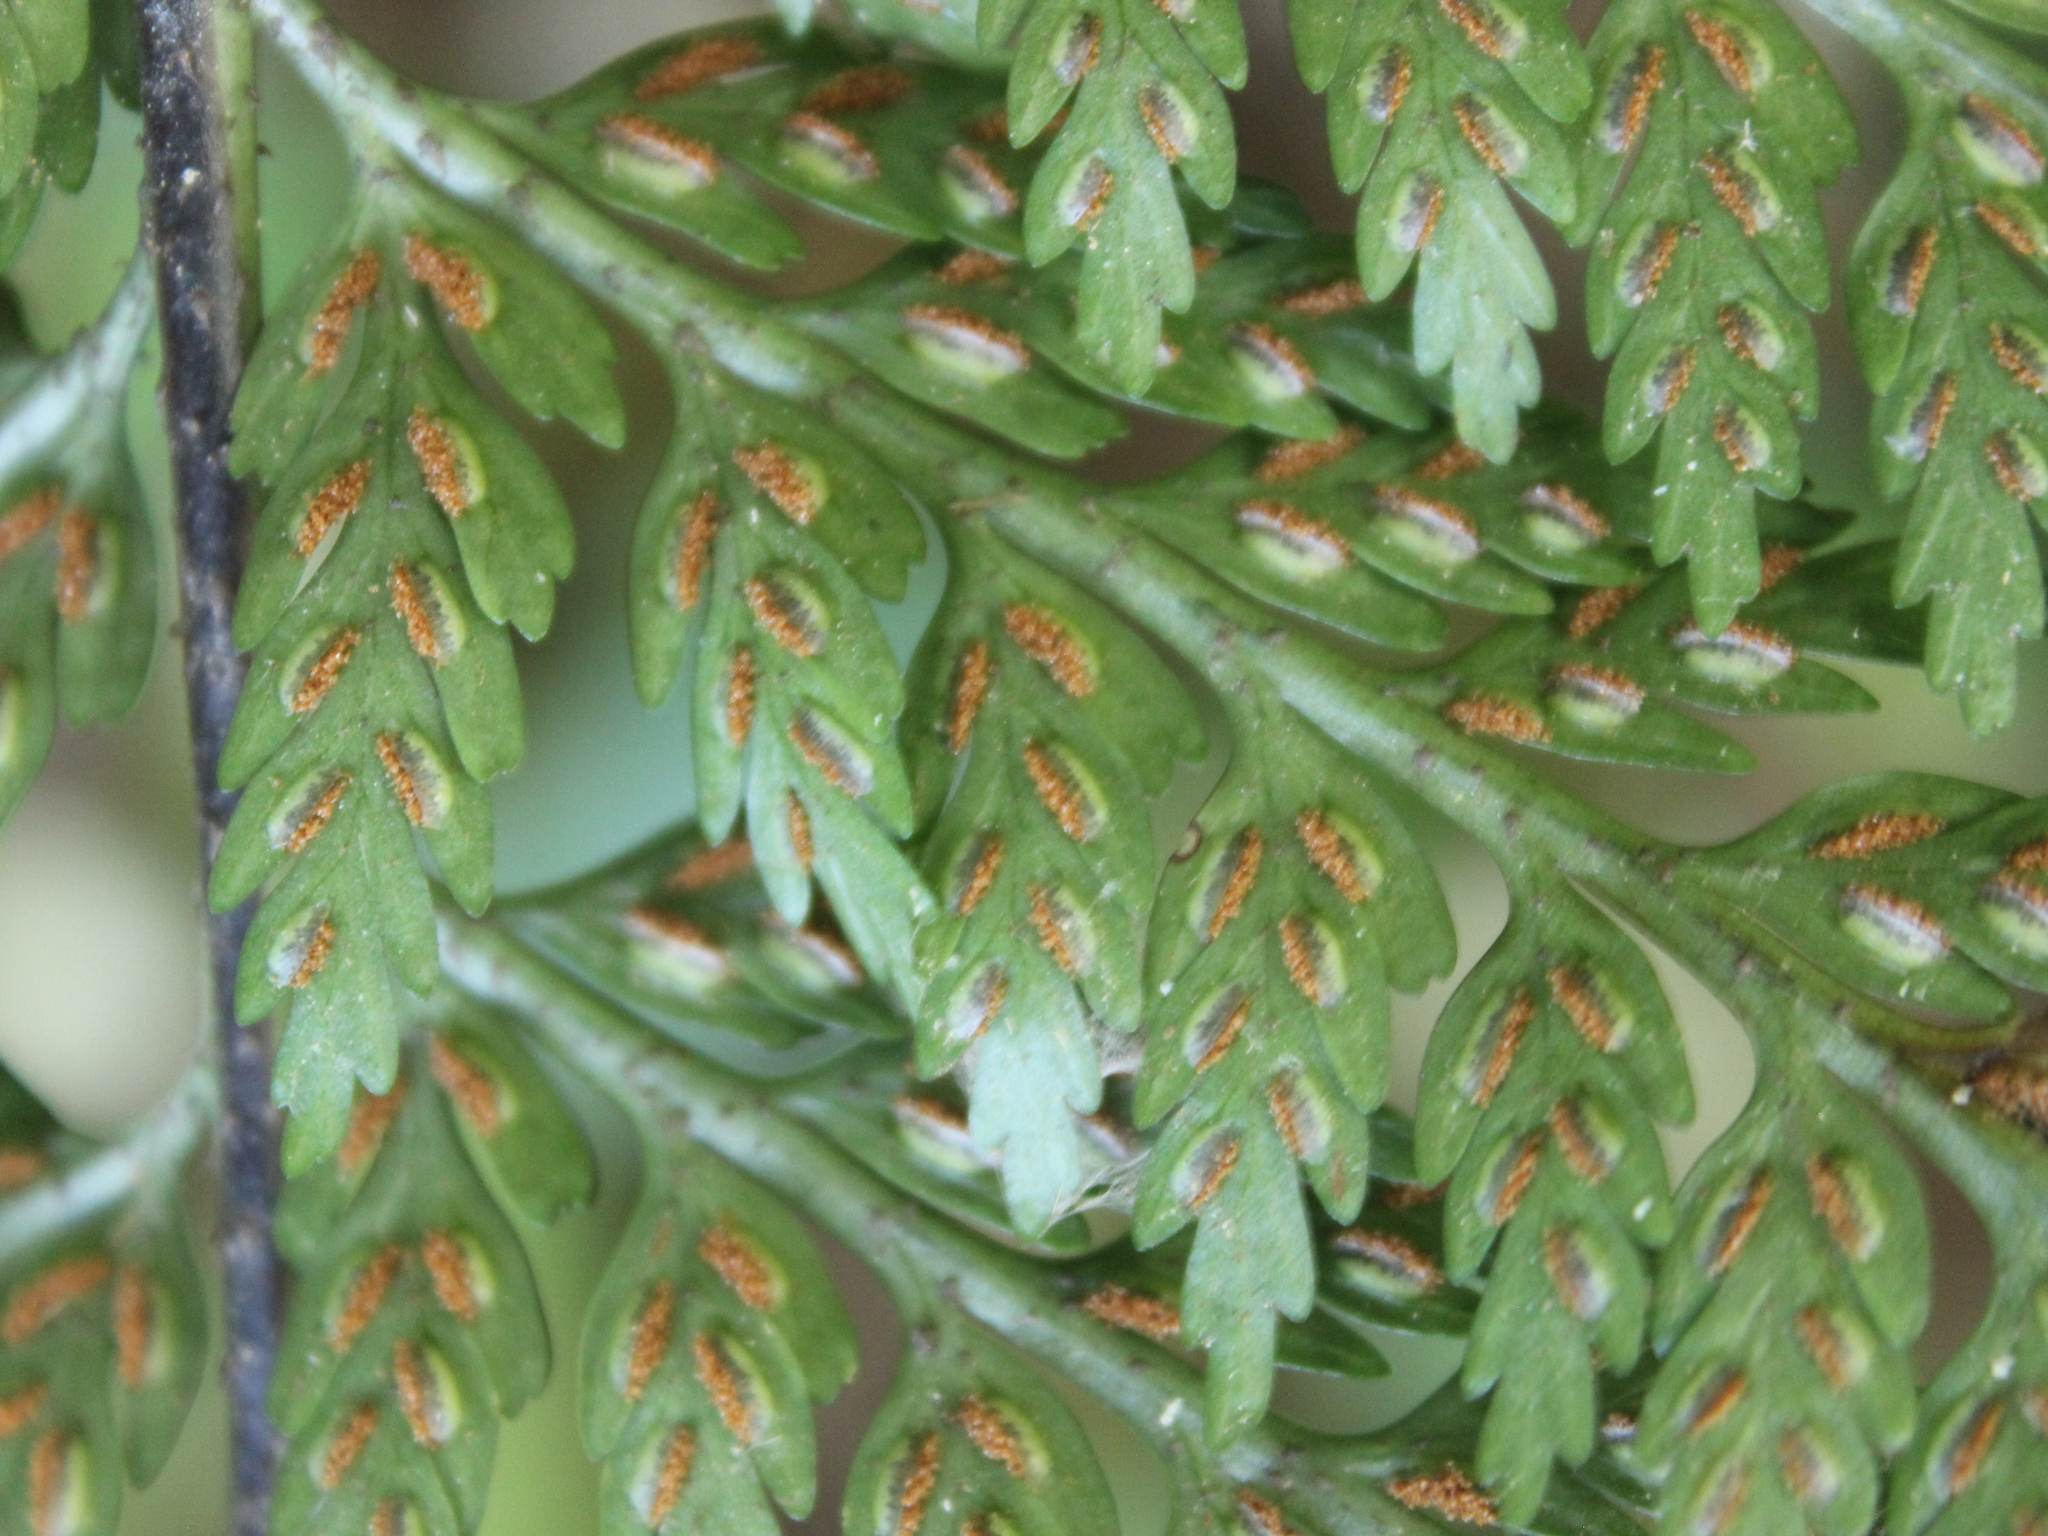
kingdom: Plantae
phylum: Tracheophyta
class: Polypodiopsida
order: Polypodiales
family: Aspleniaceae
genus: Asplenium
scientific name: Asplenium
